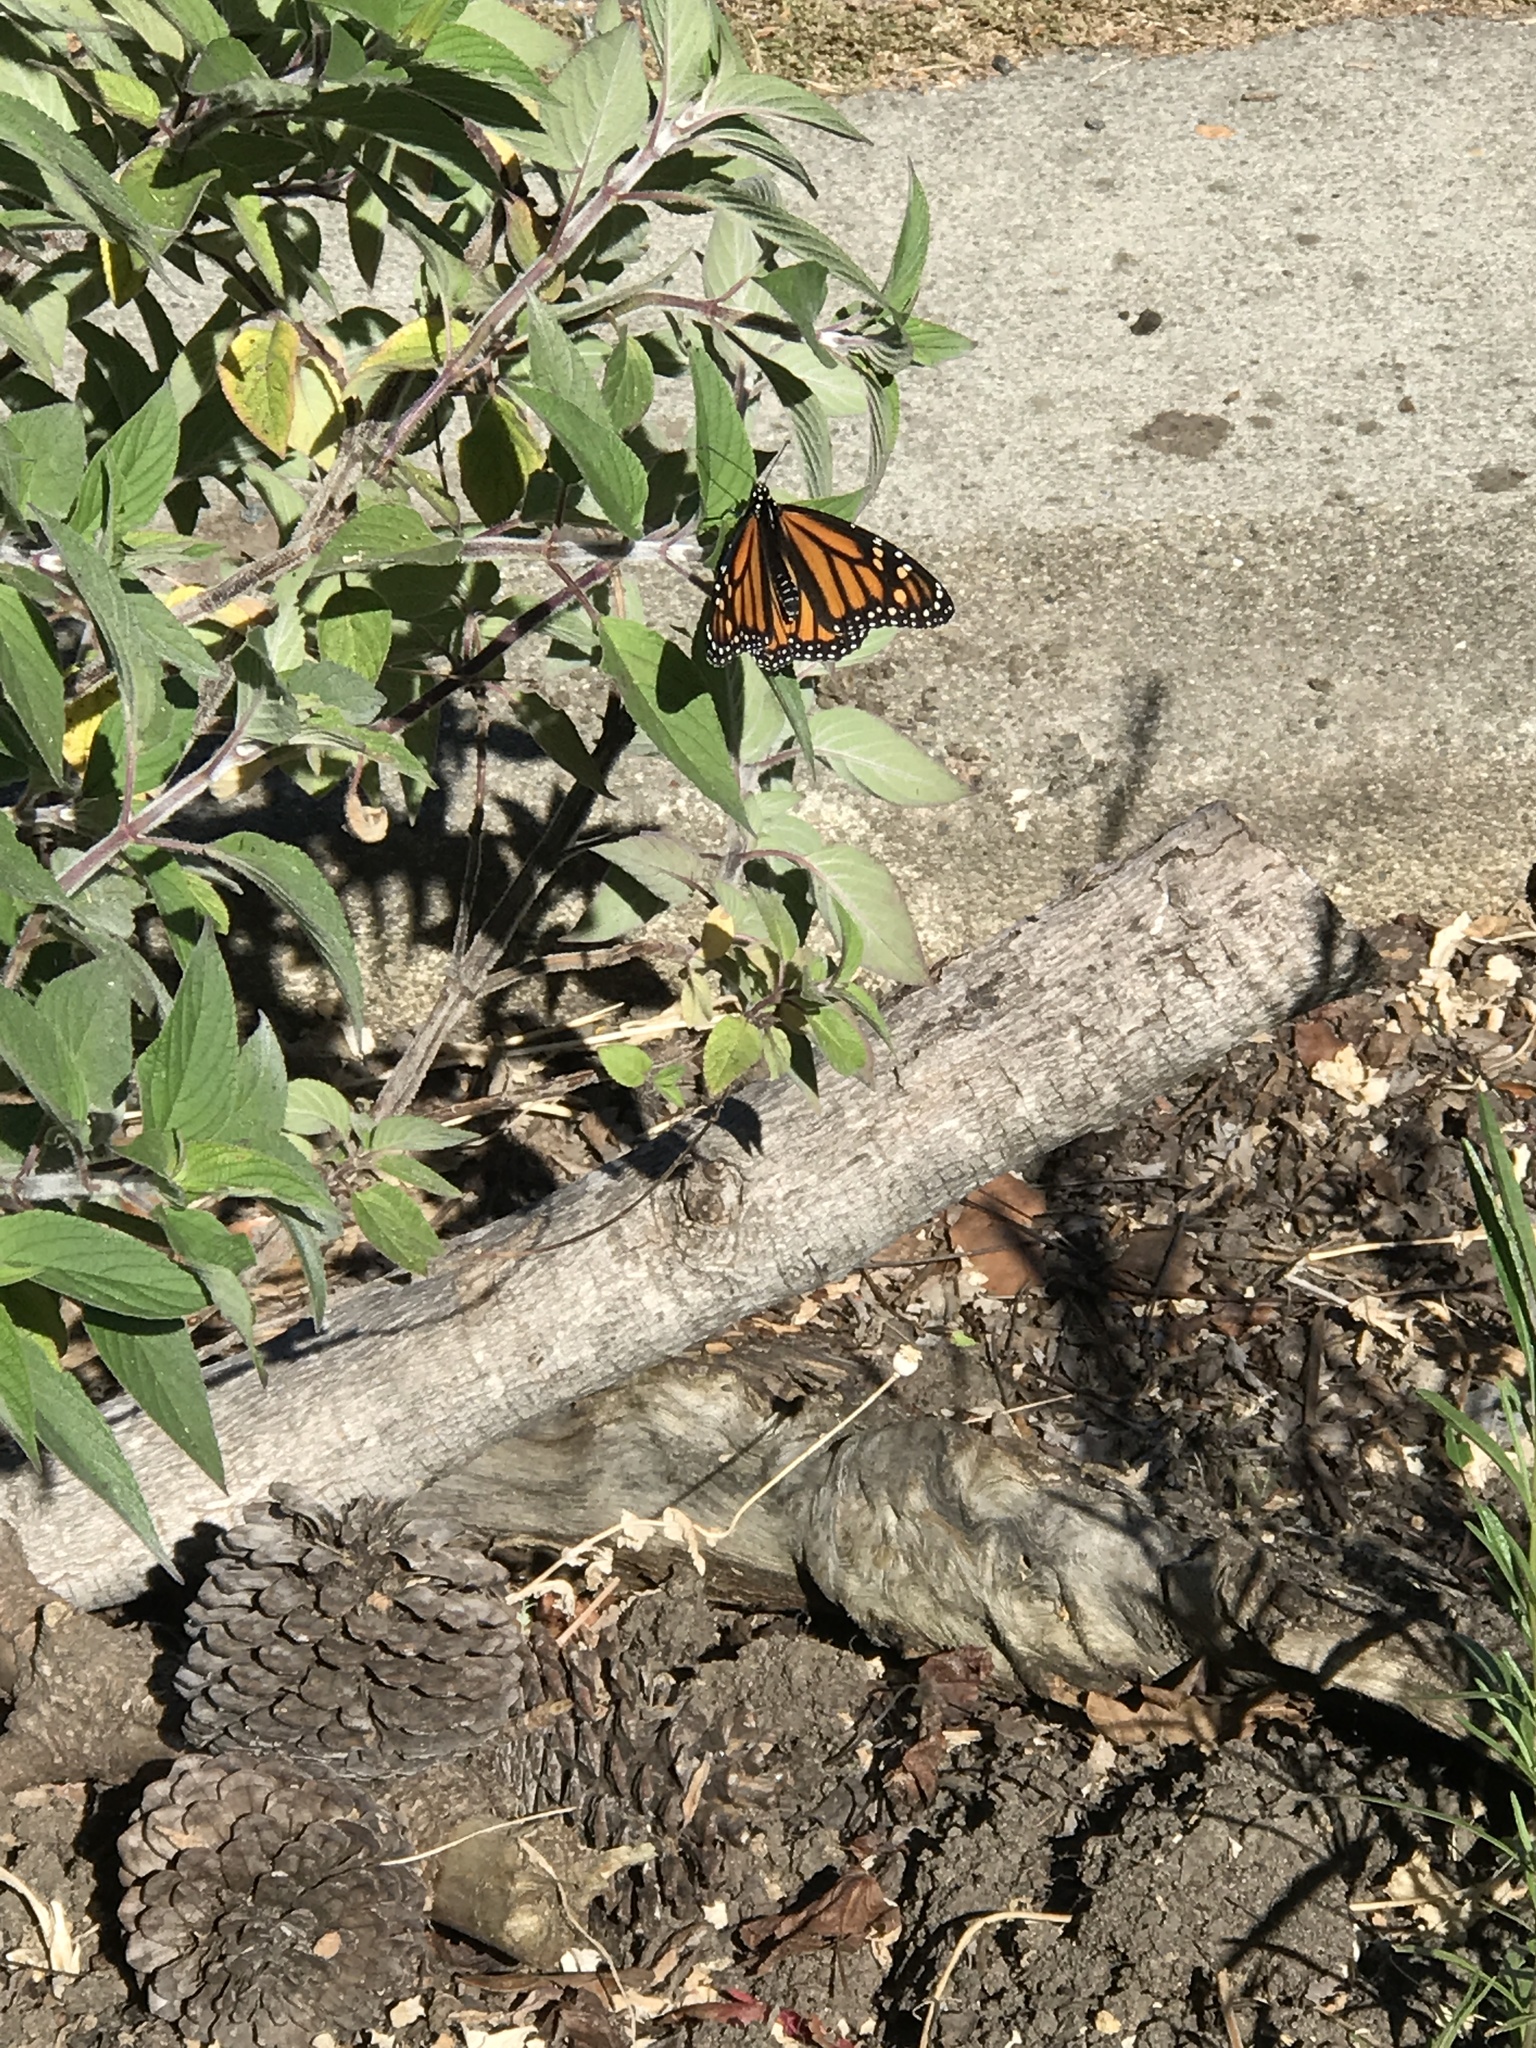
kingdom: Animalia
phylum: Arthropoda
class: Insecta
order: Lepidoptera
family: Nymphalidae
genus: Danaus
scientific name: Danaus plexippus
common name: Monarch
